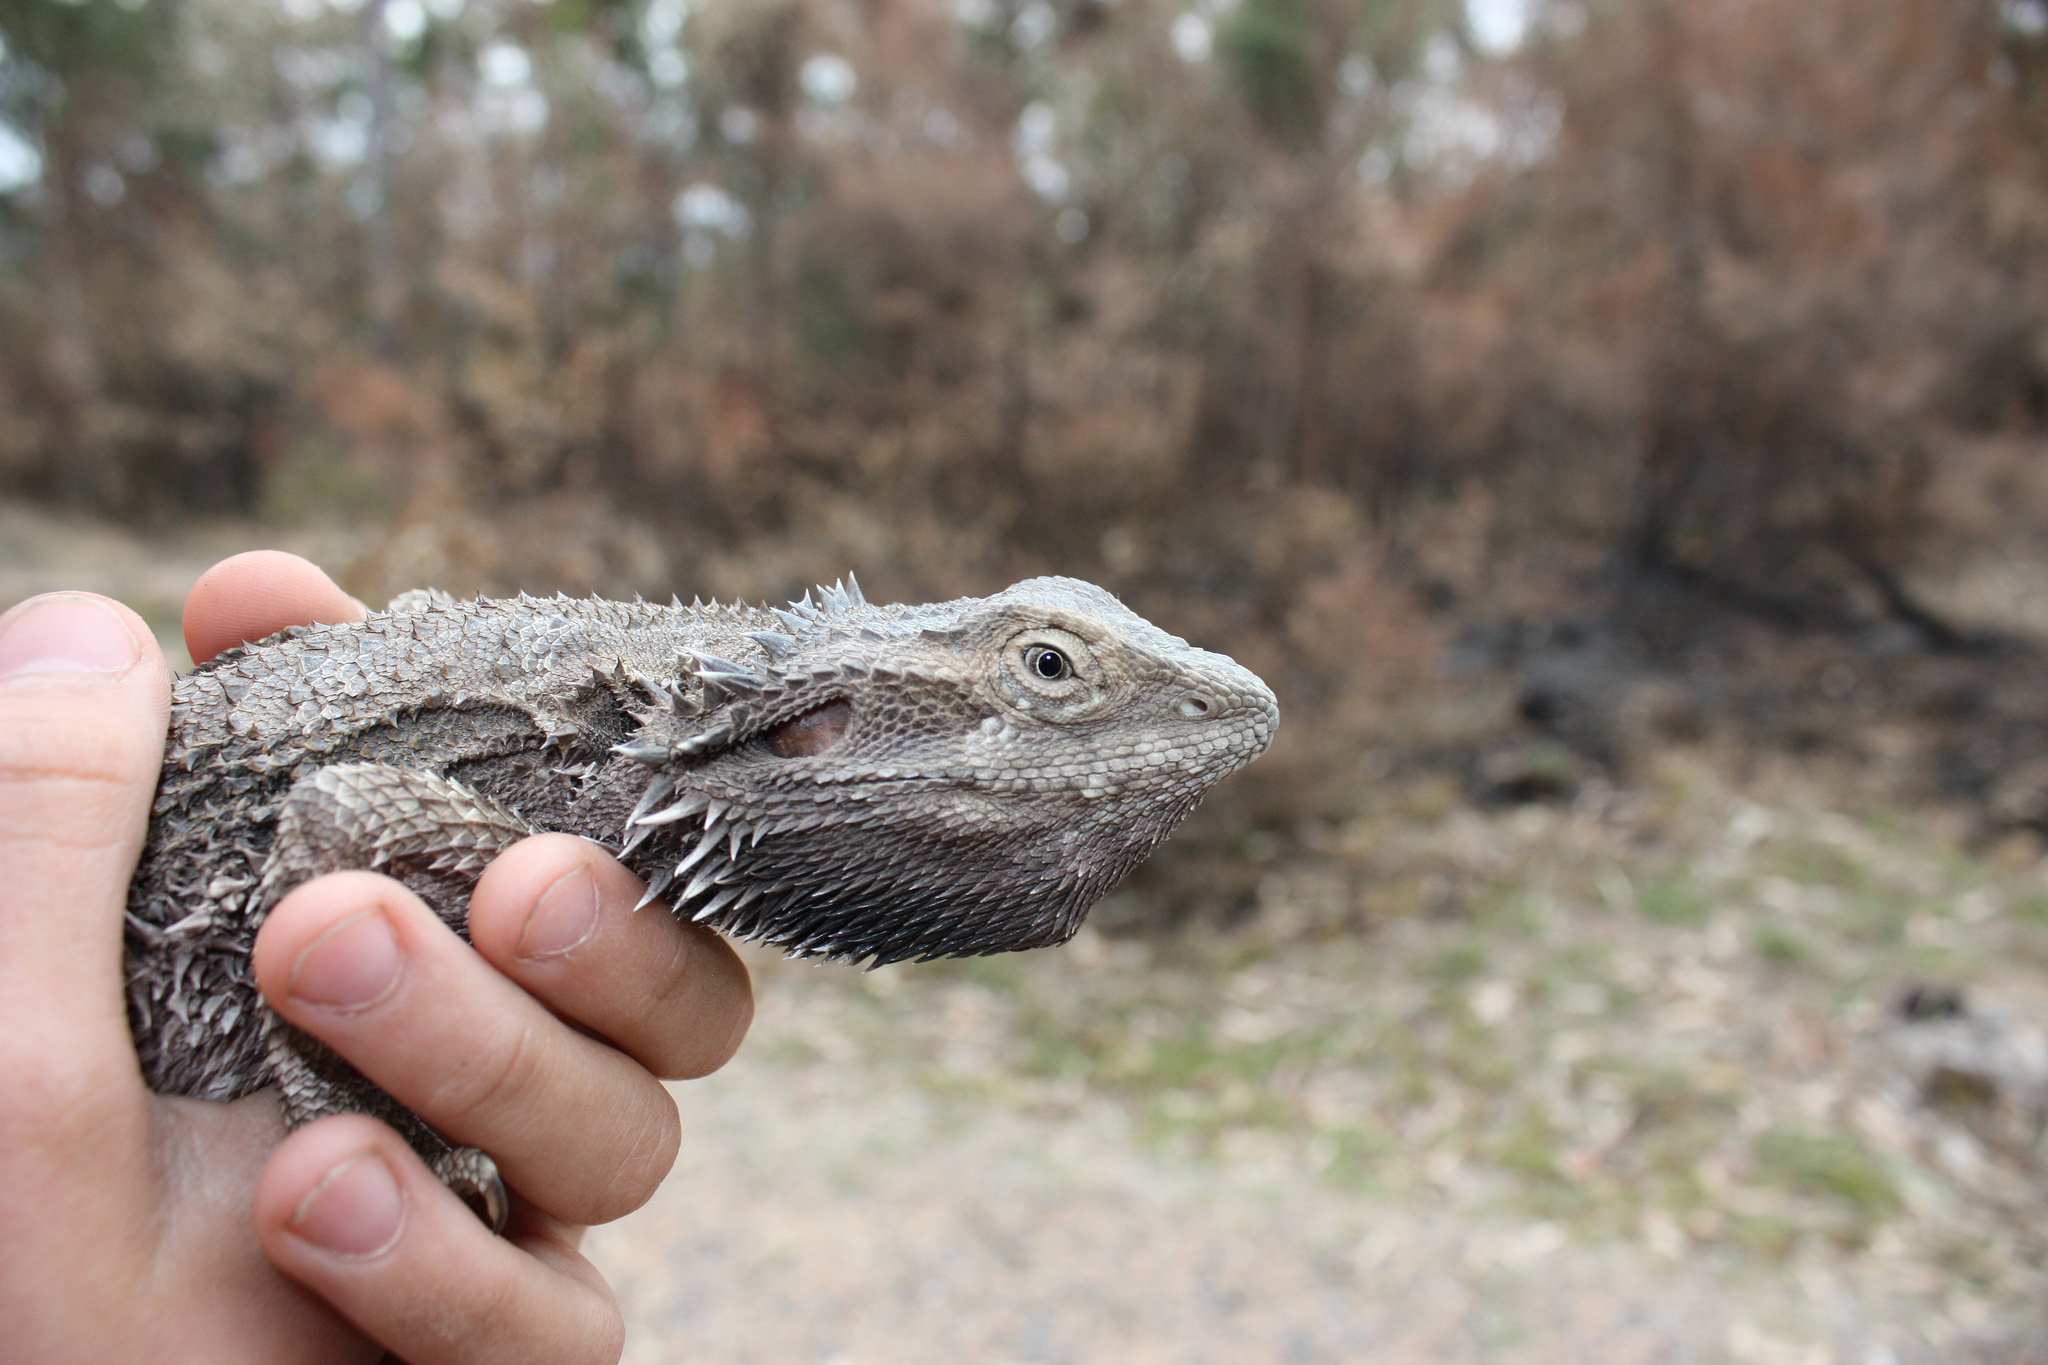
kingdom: Animalia
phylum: Chordata
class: Squamata
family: Agamidae
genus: Pogona
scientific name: Pogona barbata
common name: Bearded dragon
